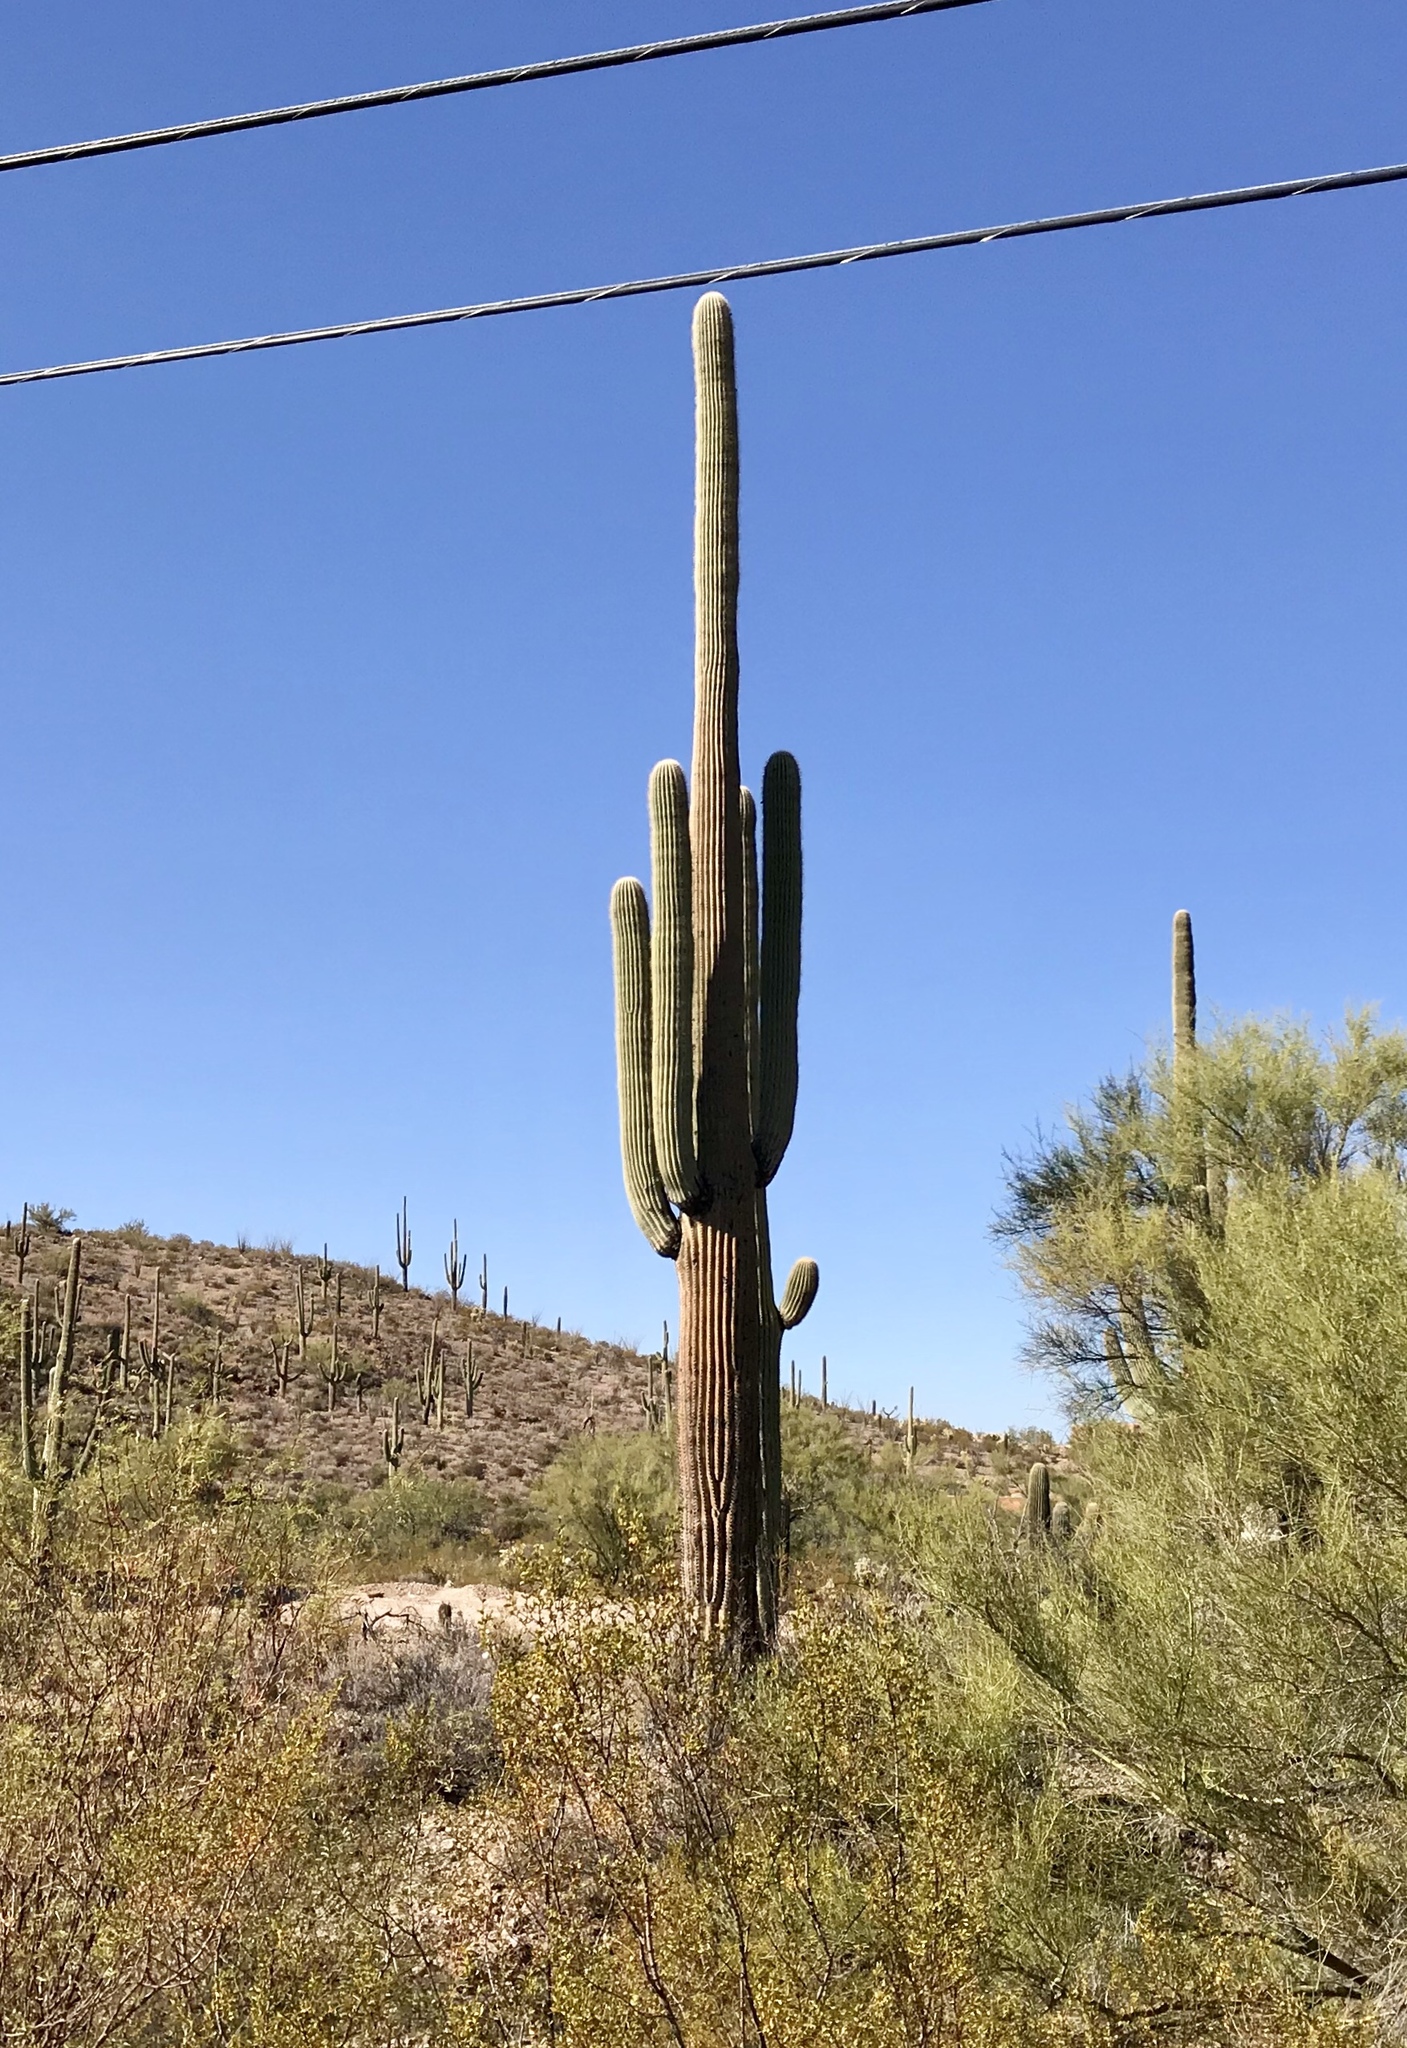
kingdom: Plantae
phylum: Tracheophyta
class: Magnoliopsida
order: Caryophyllales
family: Cactaceae
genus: Carnegiea
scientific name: Carnegiea gigantea
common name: Saguaro
